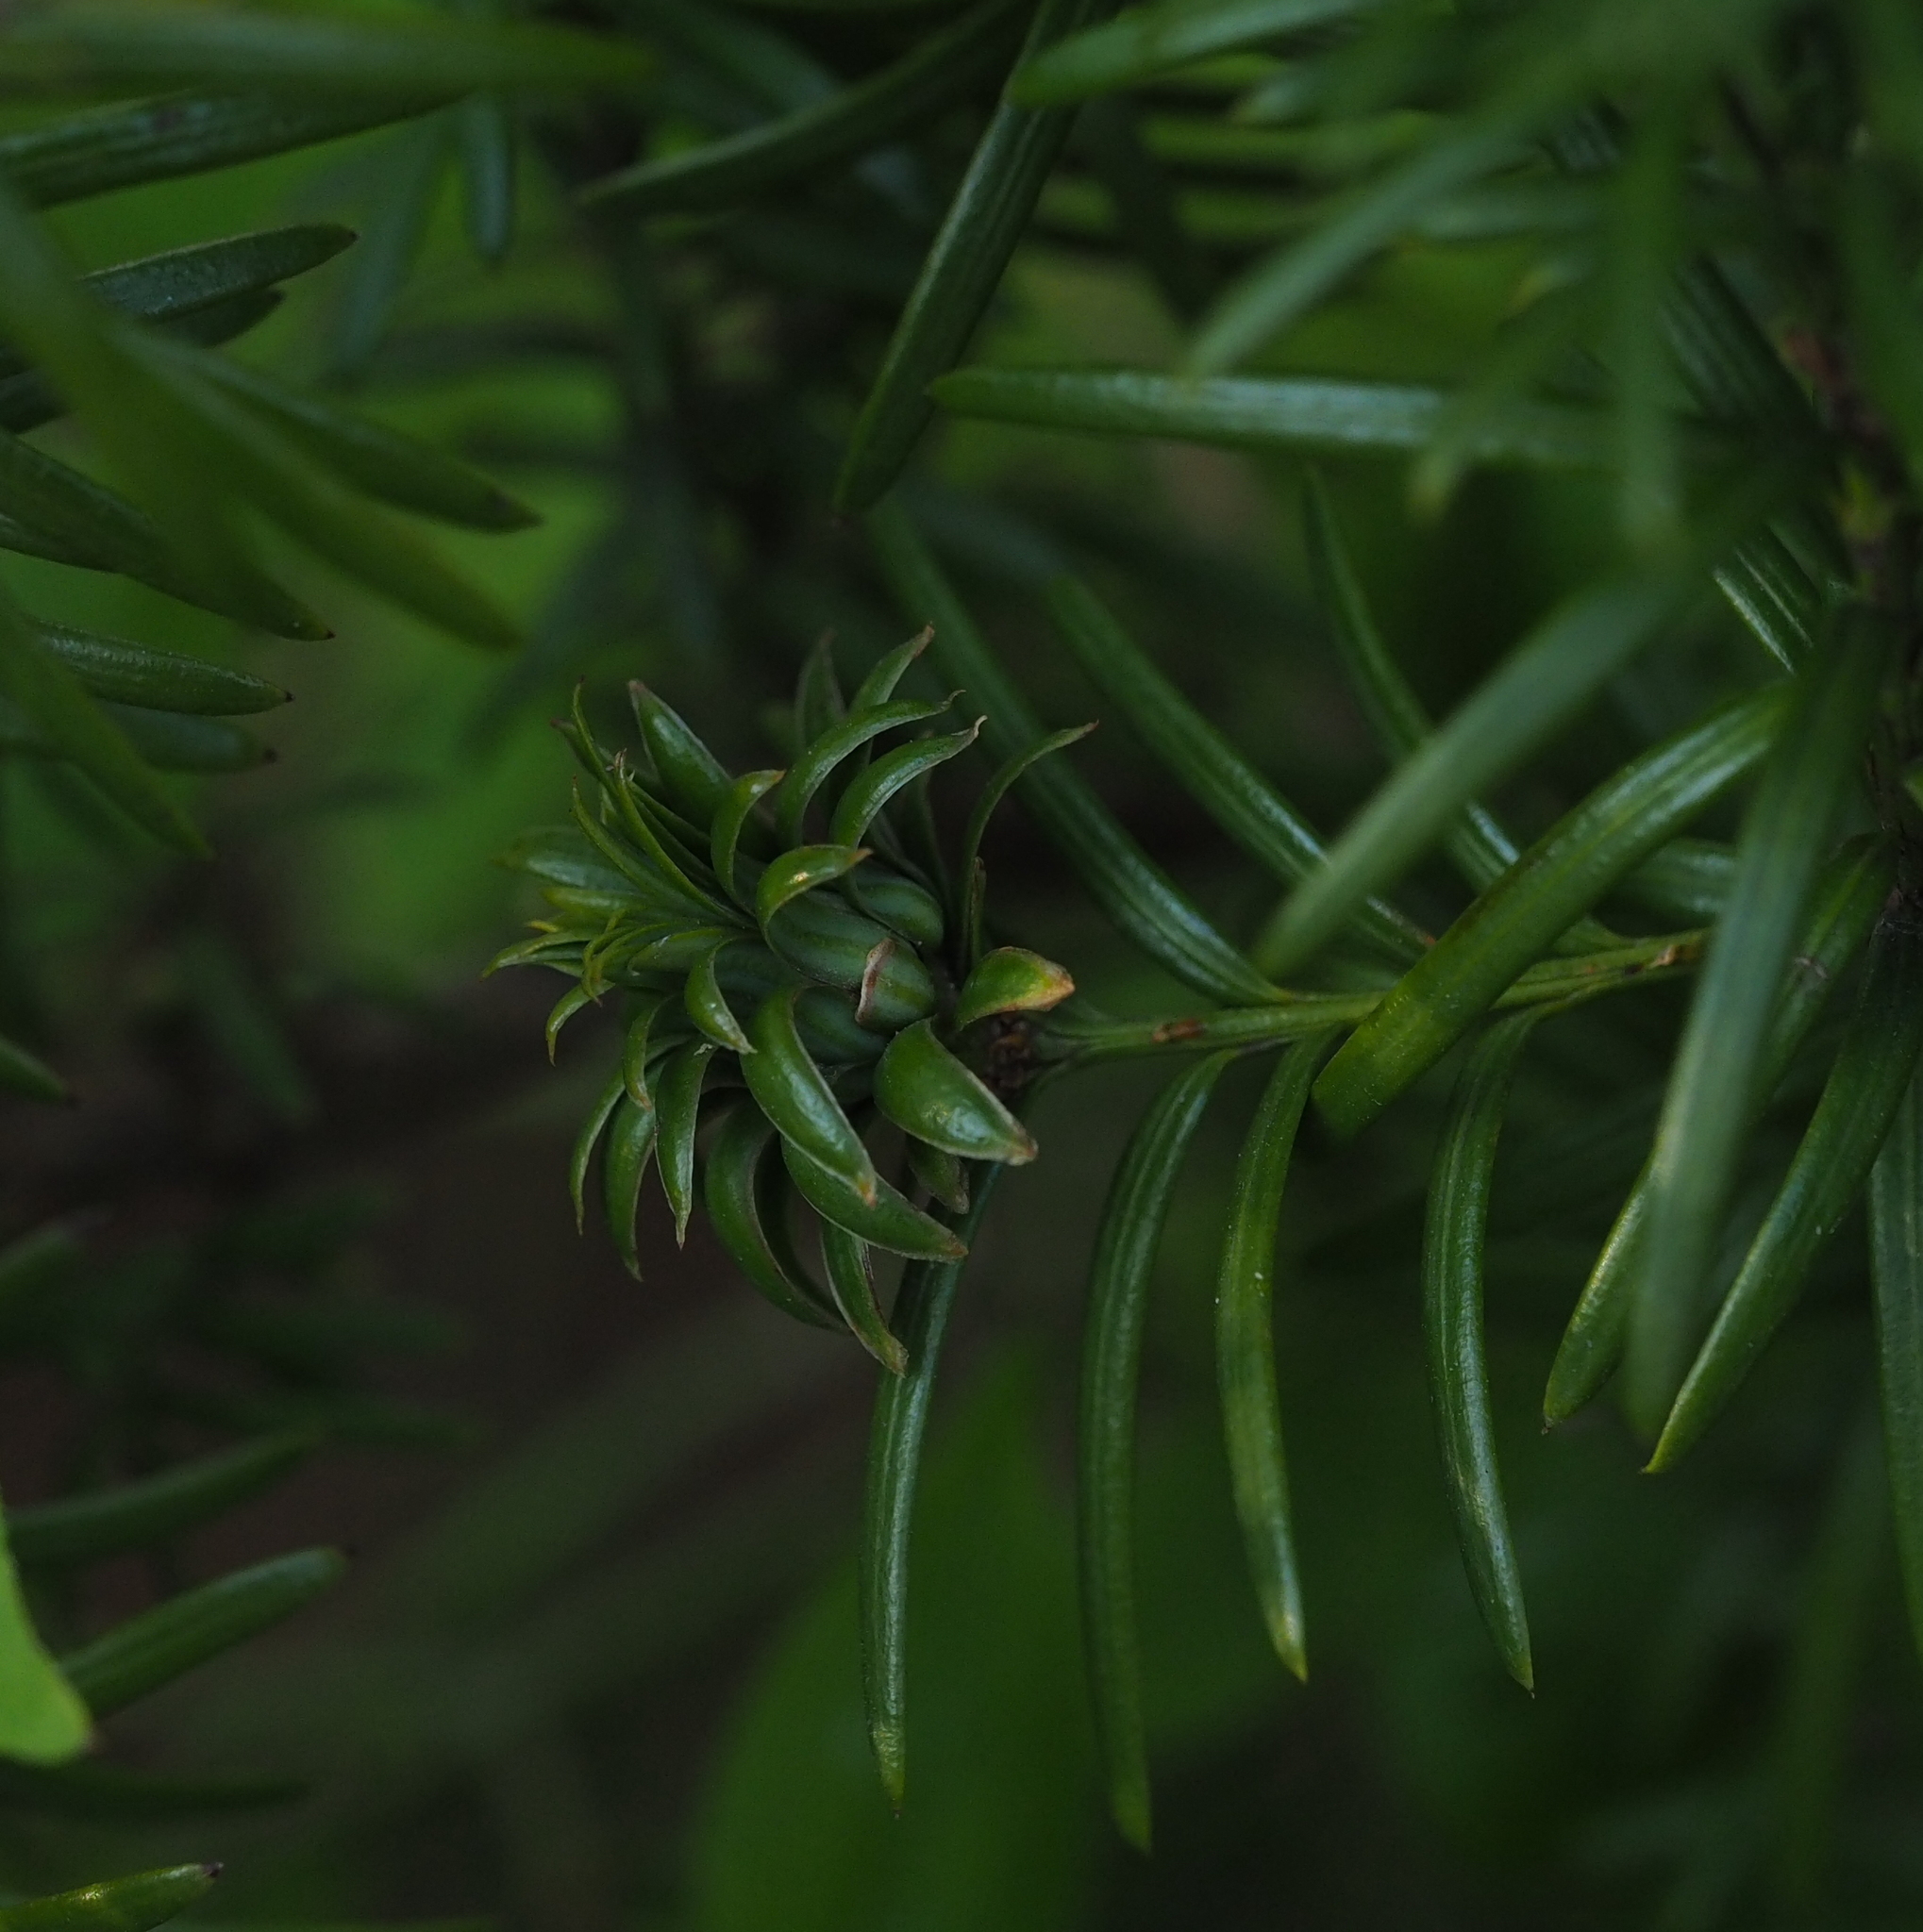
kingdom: Animalia
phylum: Arthropoda
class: Insecta
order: Diptera
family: Cecidomyiidae
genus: Taxomyia
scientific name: Taxomyia taxi
